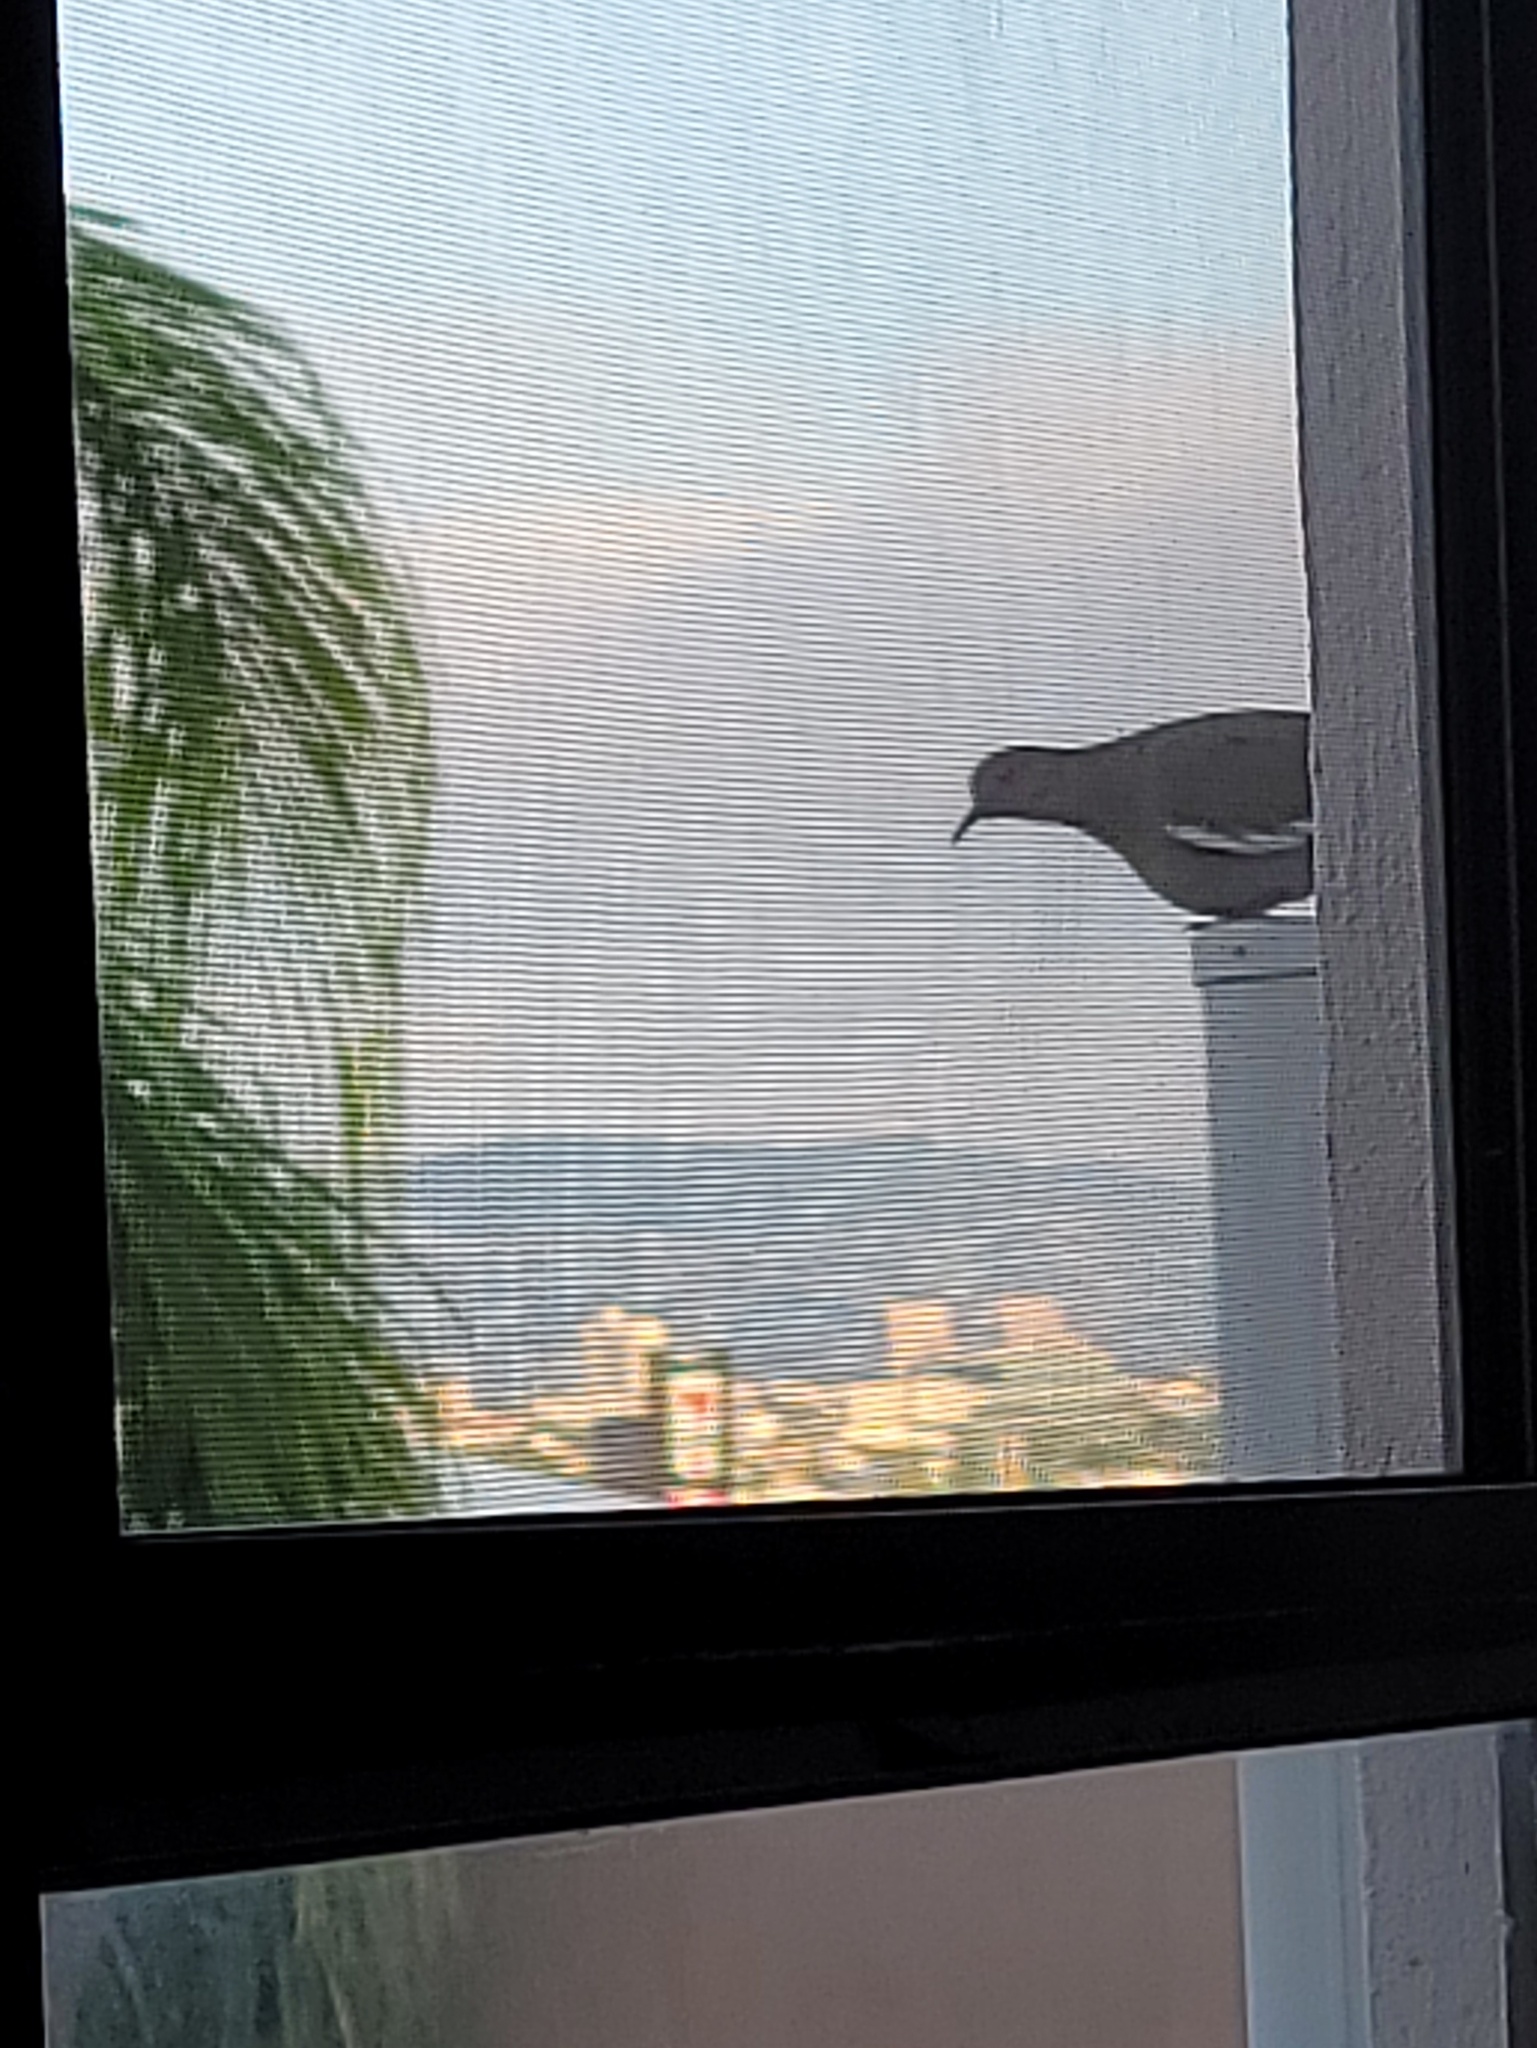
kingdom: Animalia
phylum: Chordata
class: Aves
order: Columbiformes
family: Columbidae
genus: Zenaida
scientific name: Zenaida asiatica
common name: White-winged dove
